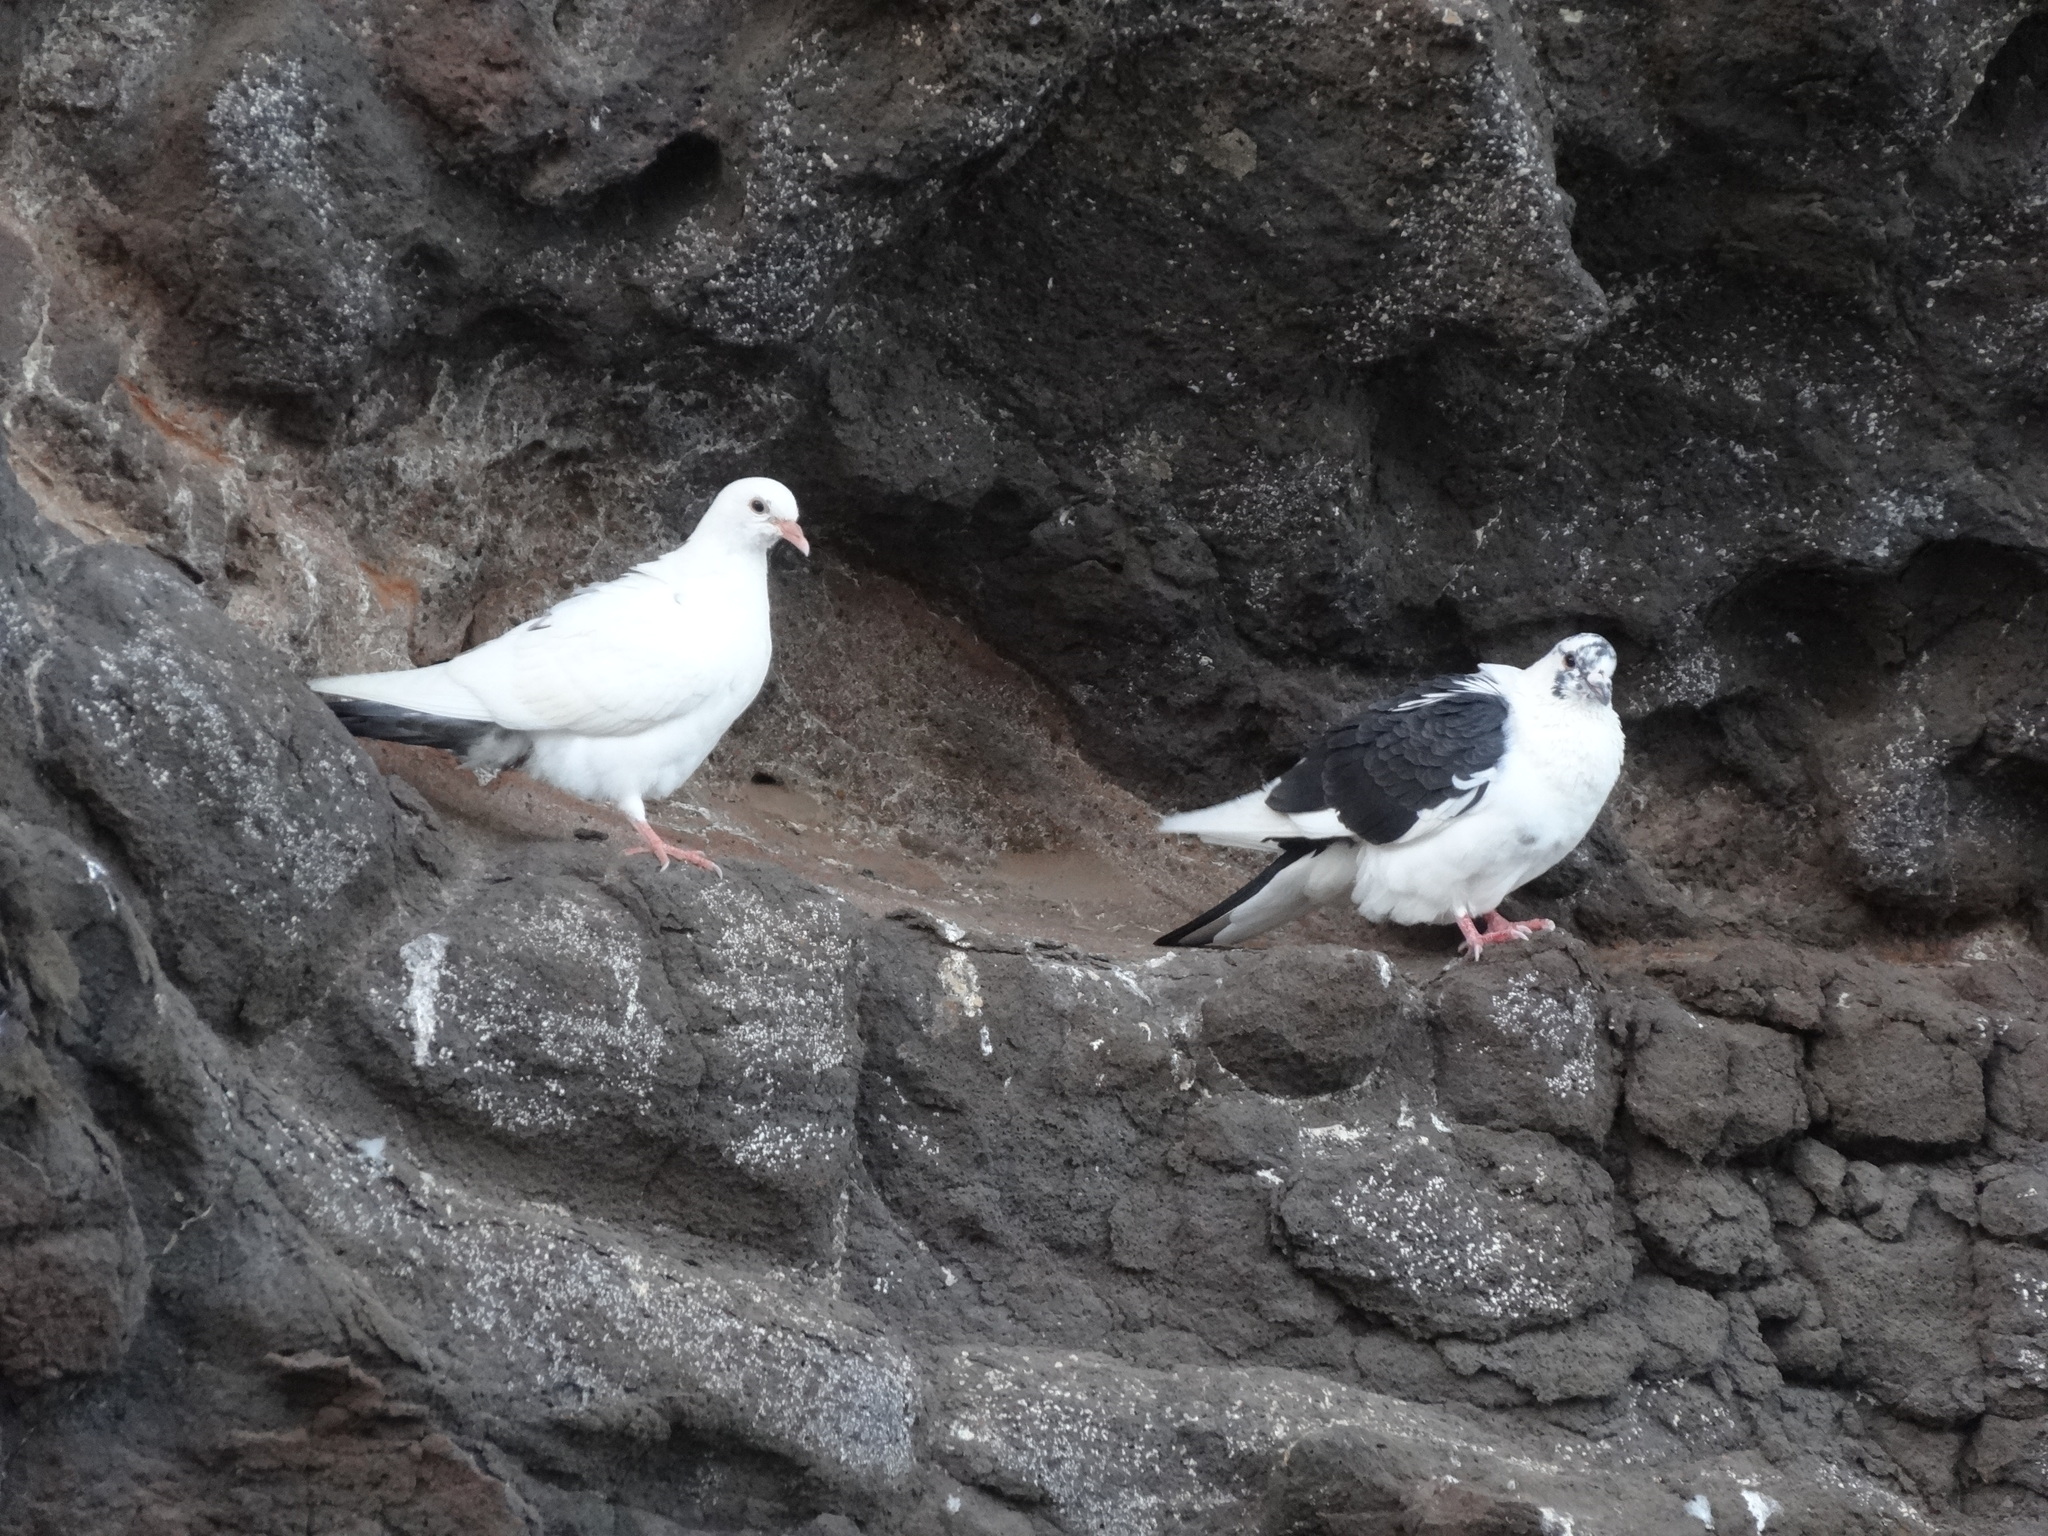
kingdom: Animalia
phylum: Chordata
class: Aves
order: Columbiformes
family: Columbidae
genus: Columba
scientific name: Columba livia
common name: Rock pigeon
